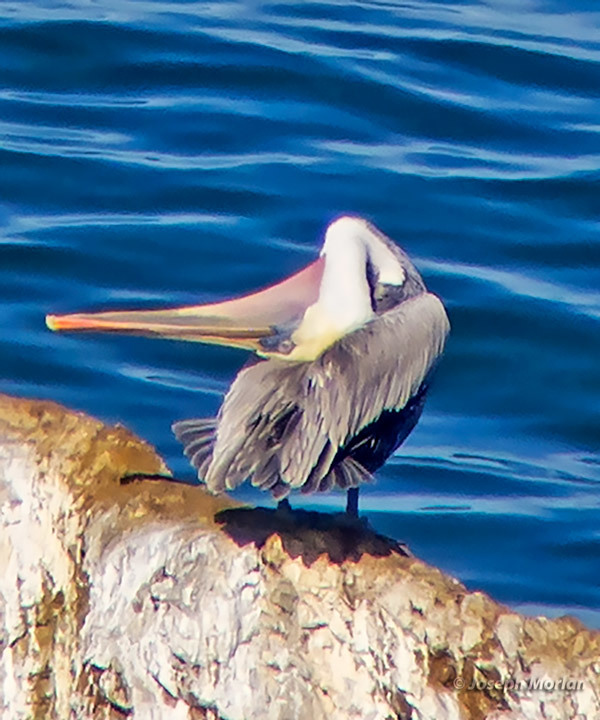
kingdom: Animalia
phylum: Chordata
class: Aves
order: Pelecaniformes
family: Pelecanidae
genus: Pelecanus
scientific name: Pelecanus occidentalis
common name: Brown pelican
